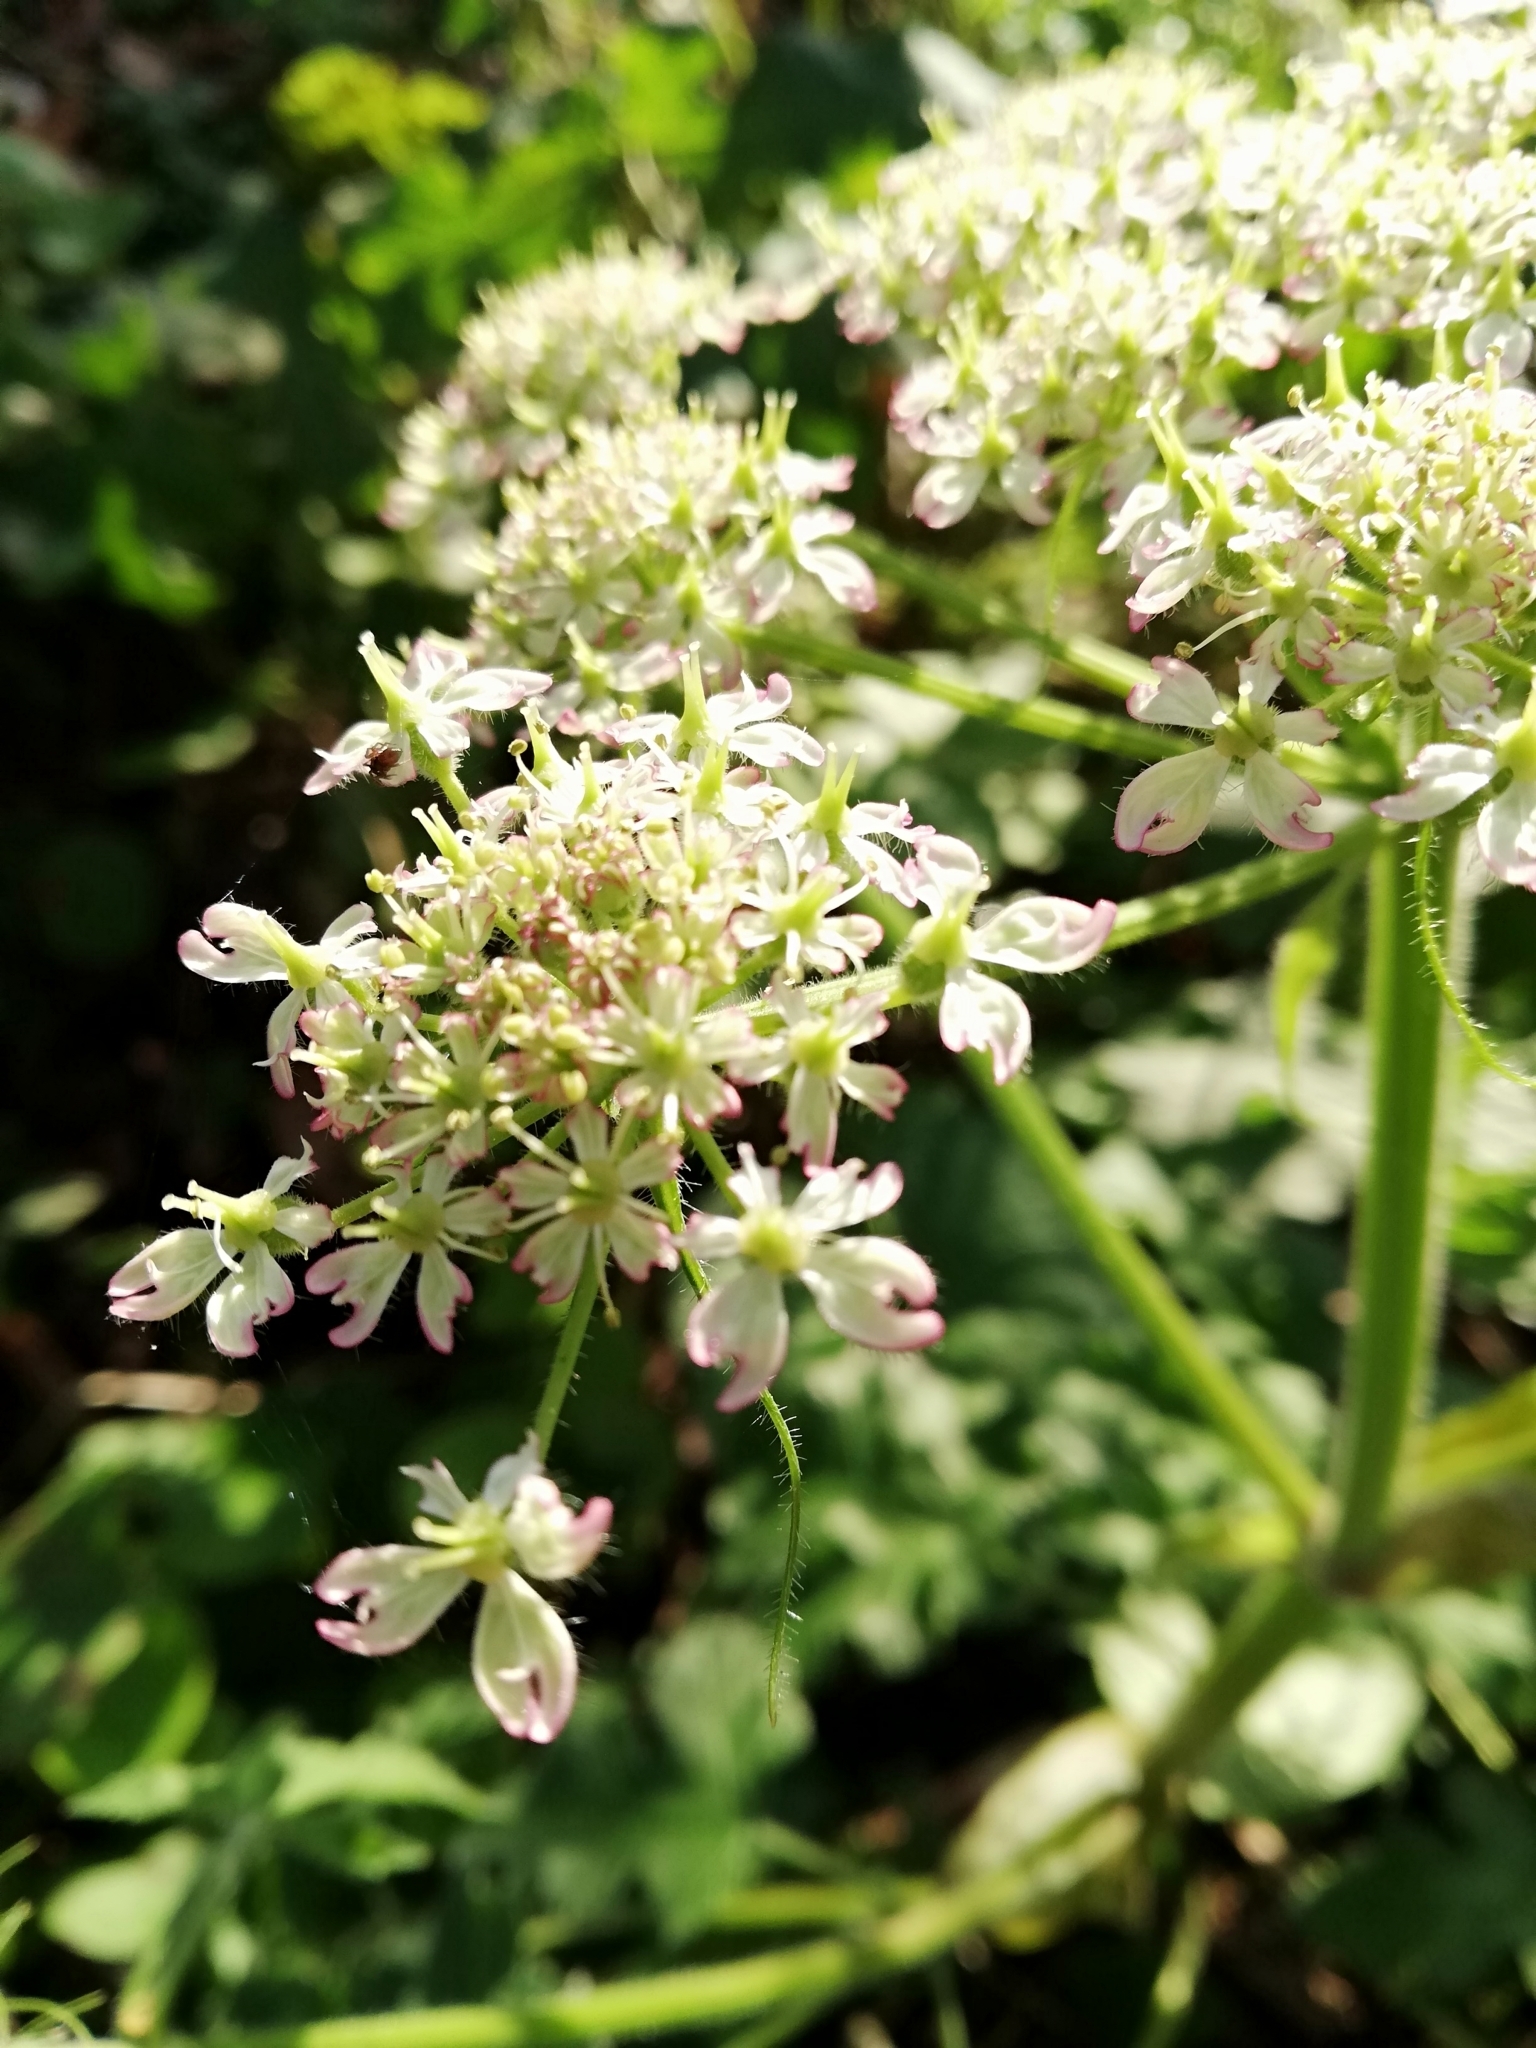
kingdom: Plantae
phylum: Tracheophyta
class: Magnoliopsida
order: Apiales
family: Apiaceae
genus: Heracleum
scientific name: Heracleum sphondylium
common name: Hogweed
